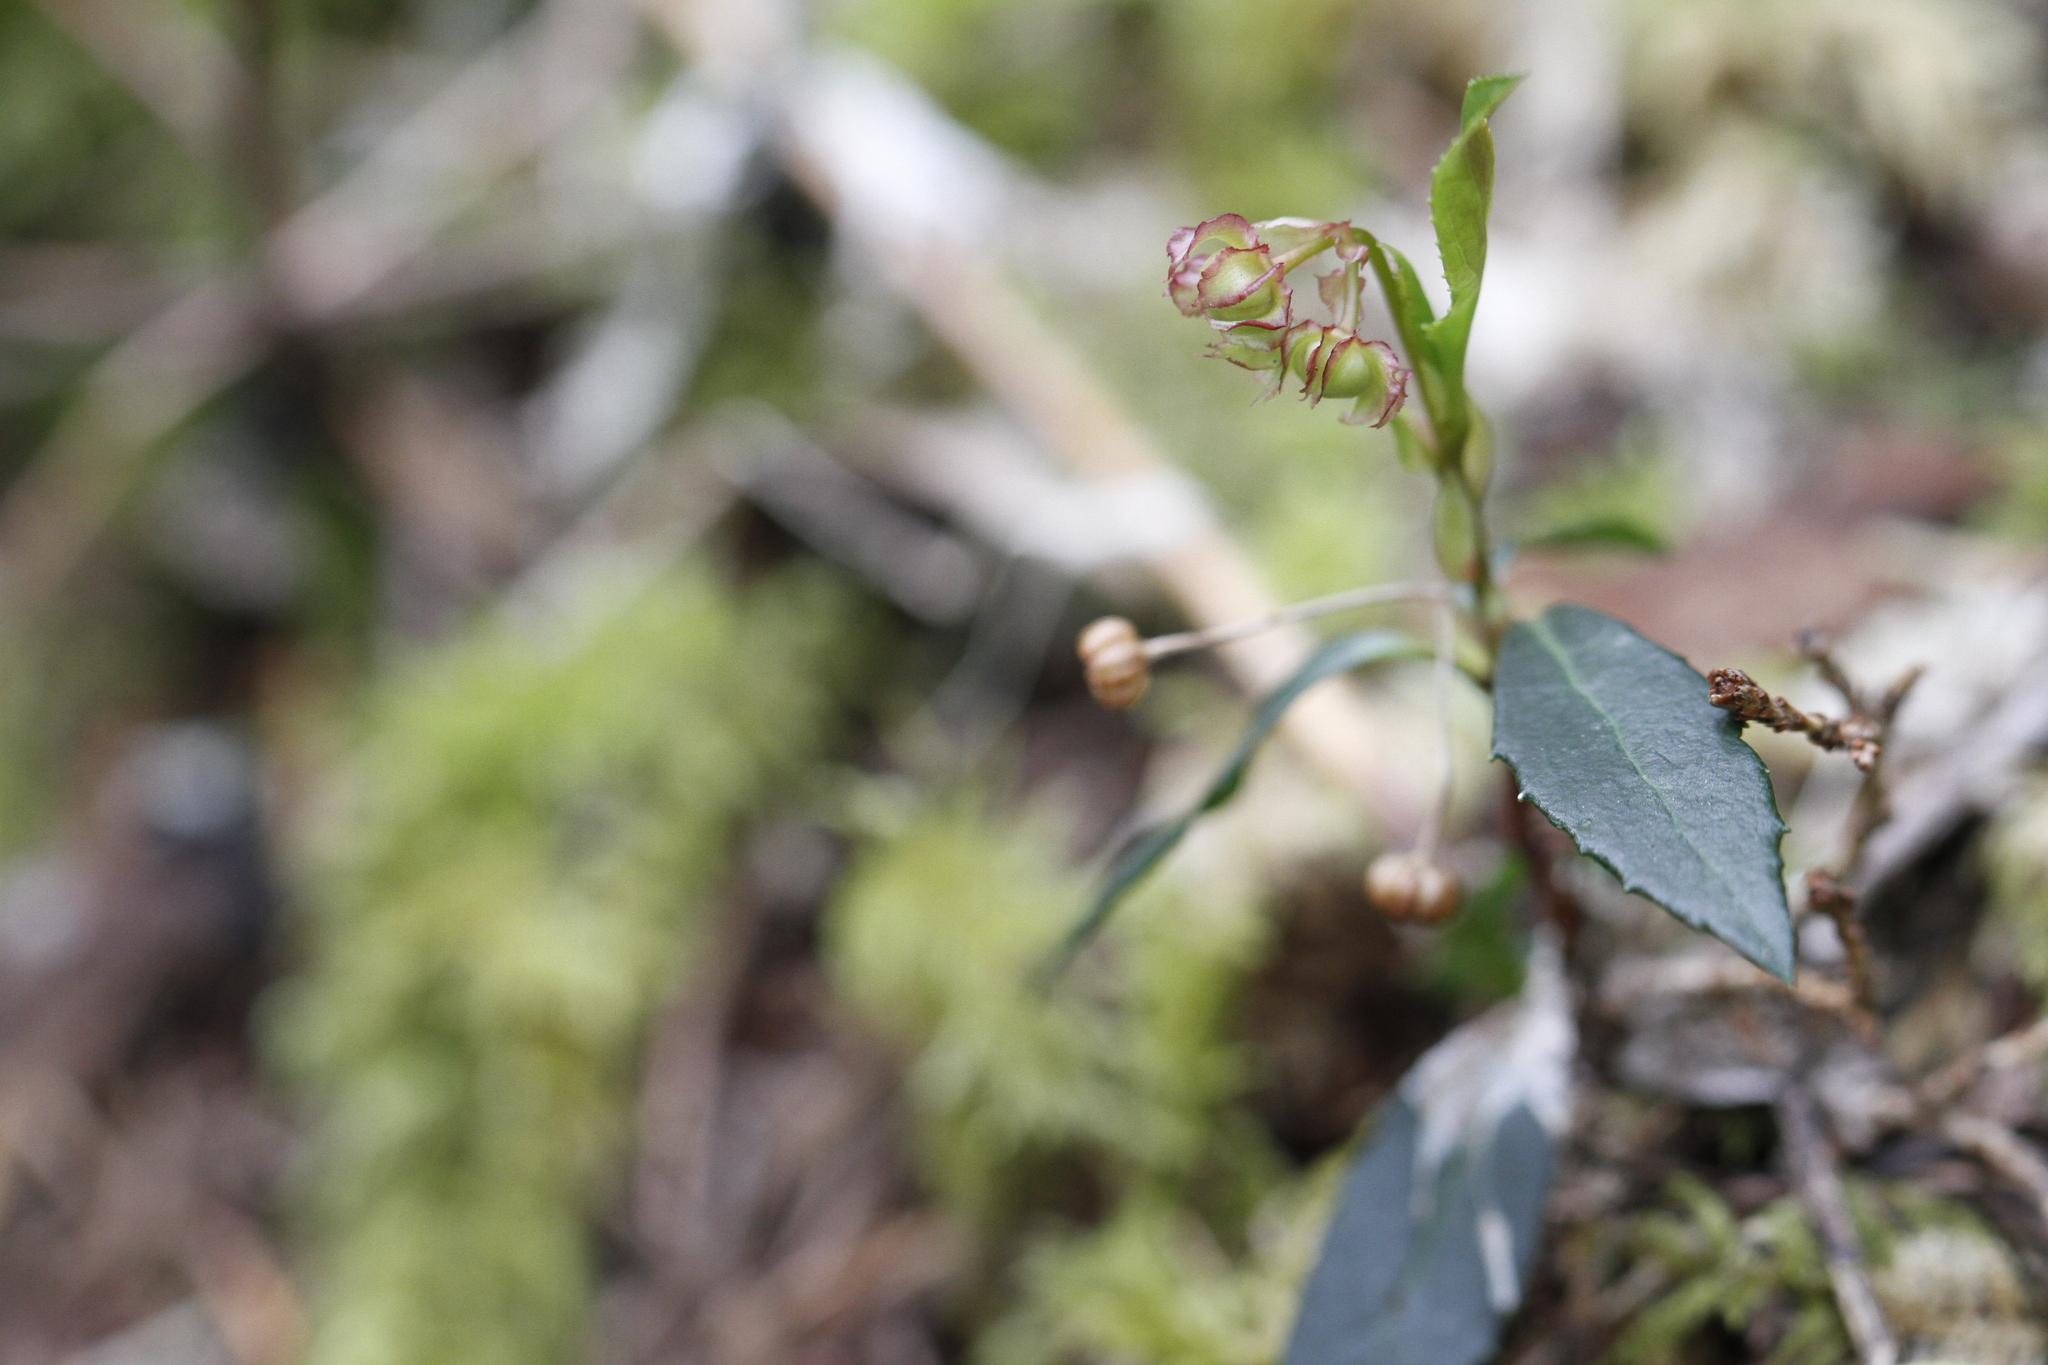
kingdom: Plantae
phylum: Tracheophyta
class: Magnoliopsida
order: Ericales
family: Ericaceae
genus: Chimaphila
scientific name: Chimaphila menziesii
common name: Menzies' pipsissewa
